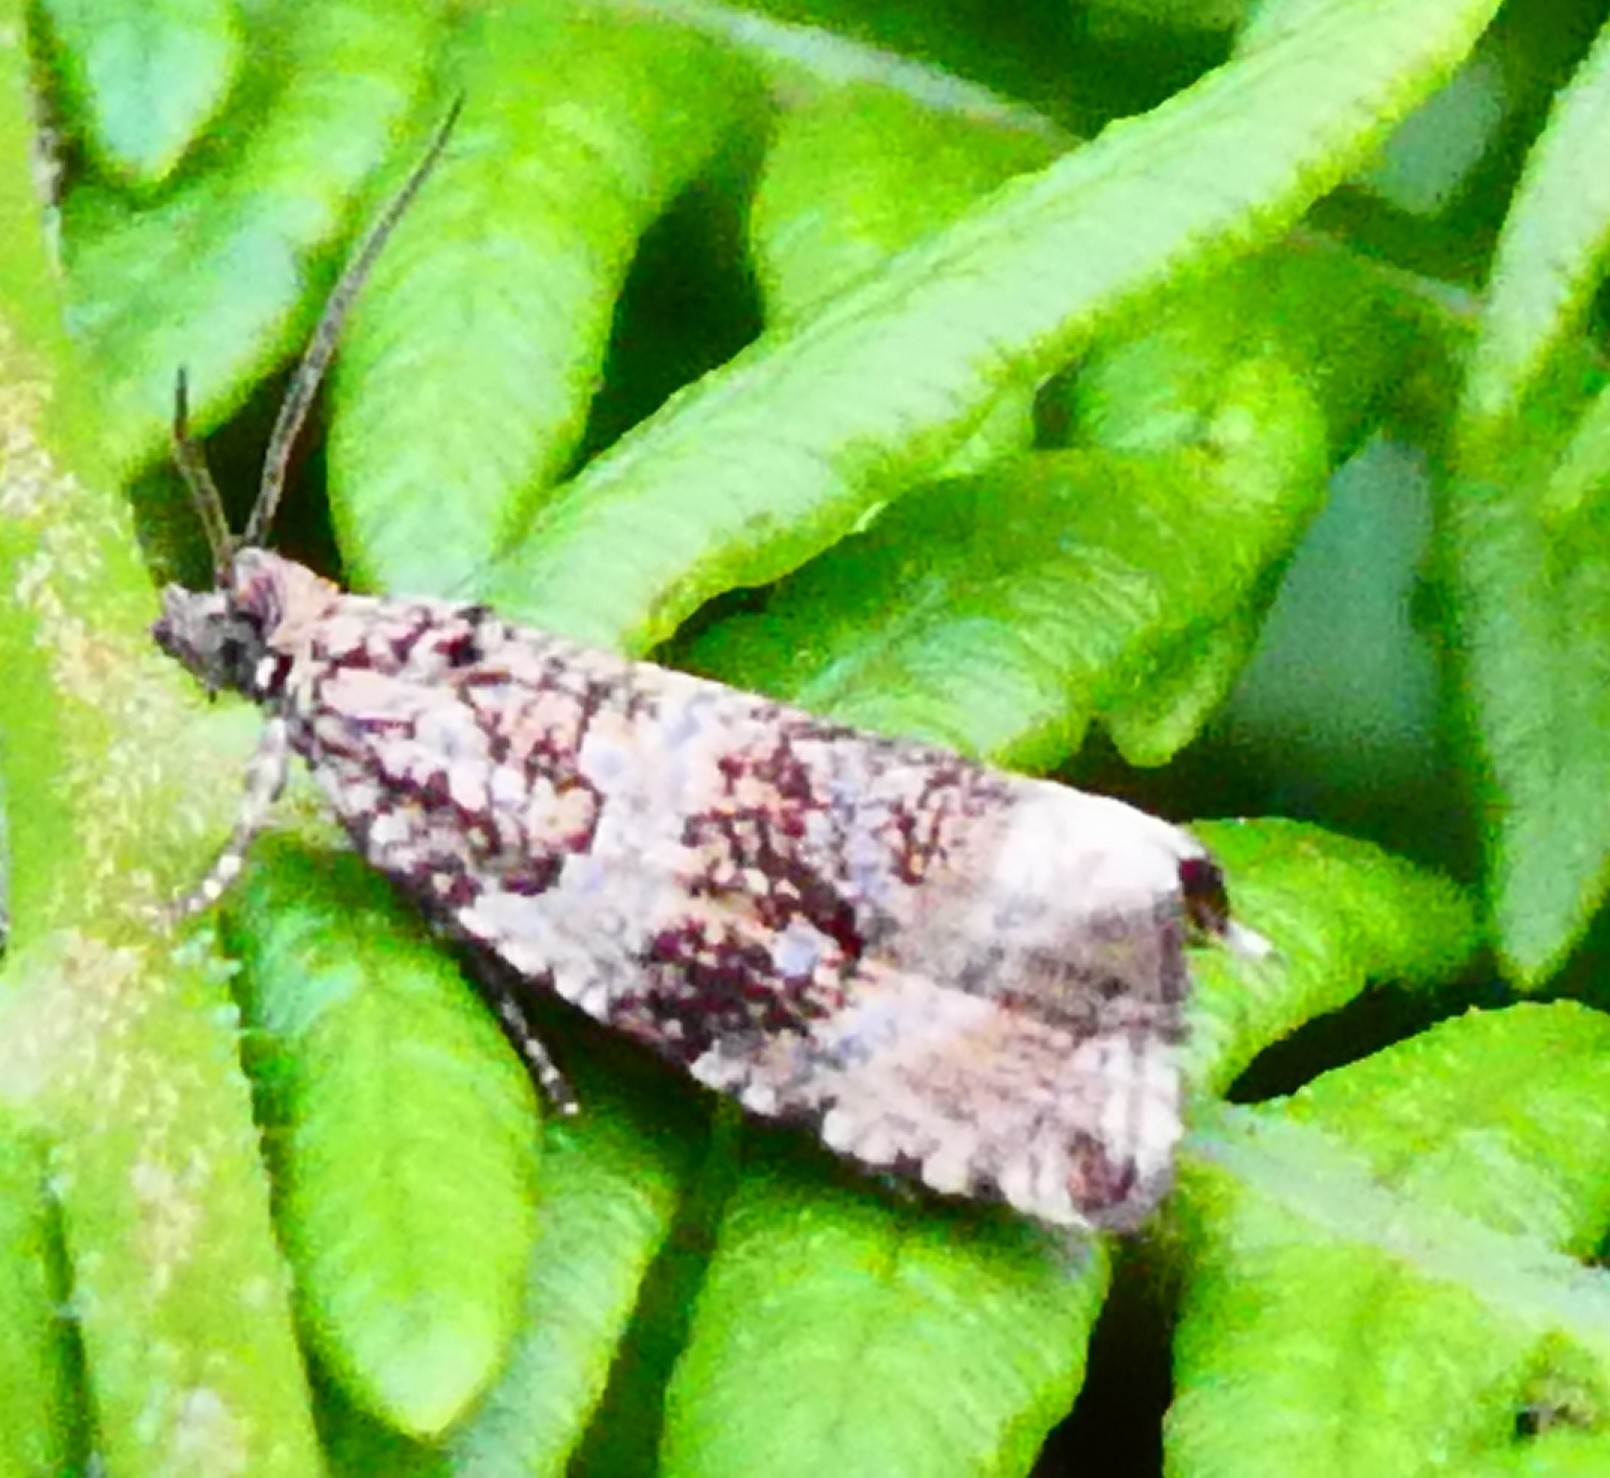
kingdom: Animalia
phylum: Arthropoda
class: Insecta
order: Lepidoptera
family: Tortricidae
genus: Syricoris
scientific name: Syricoris lacunana
